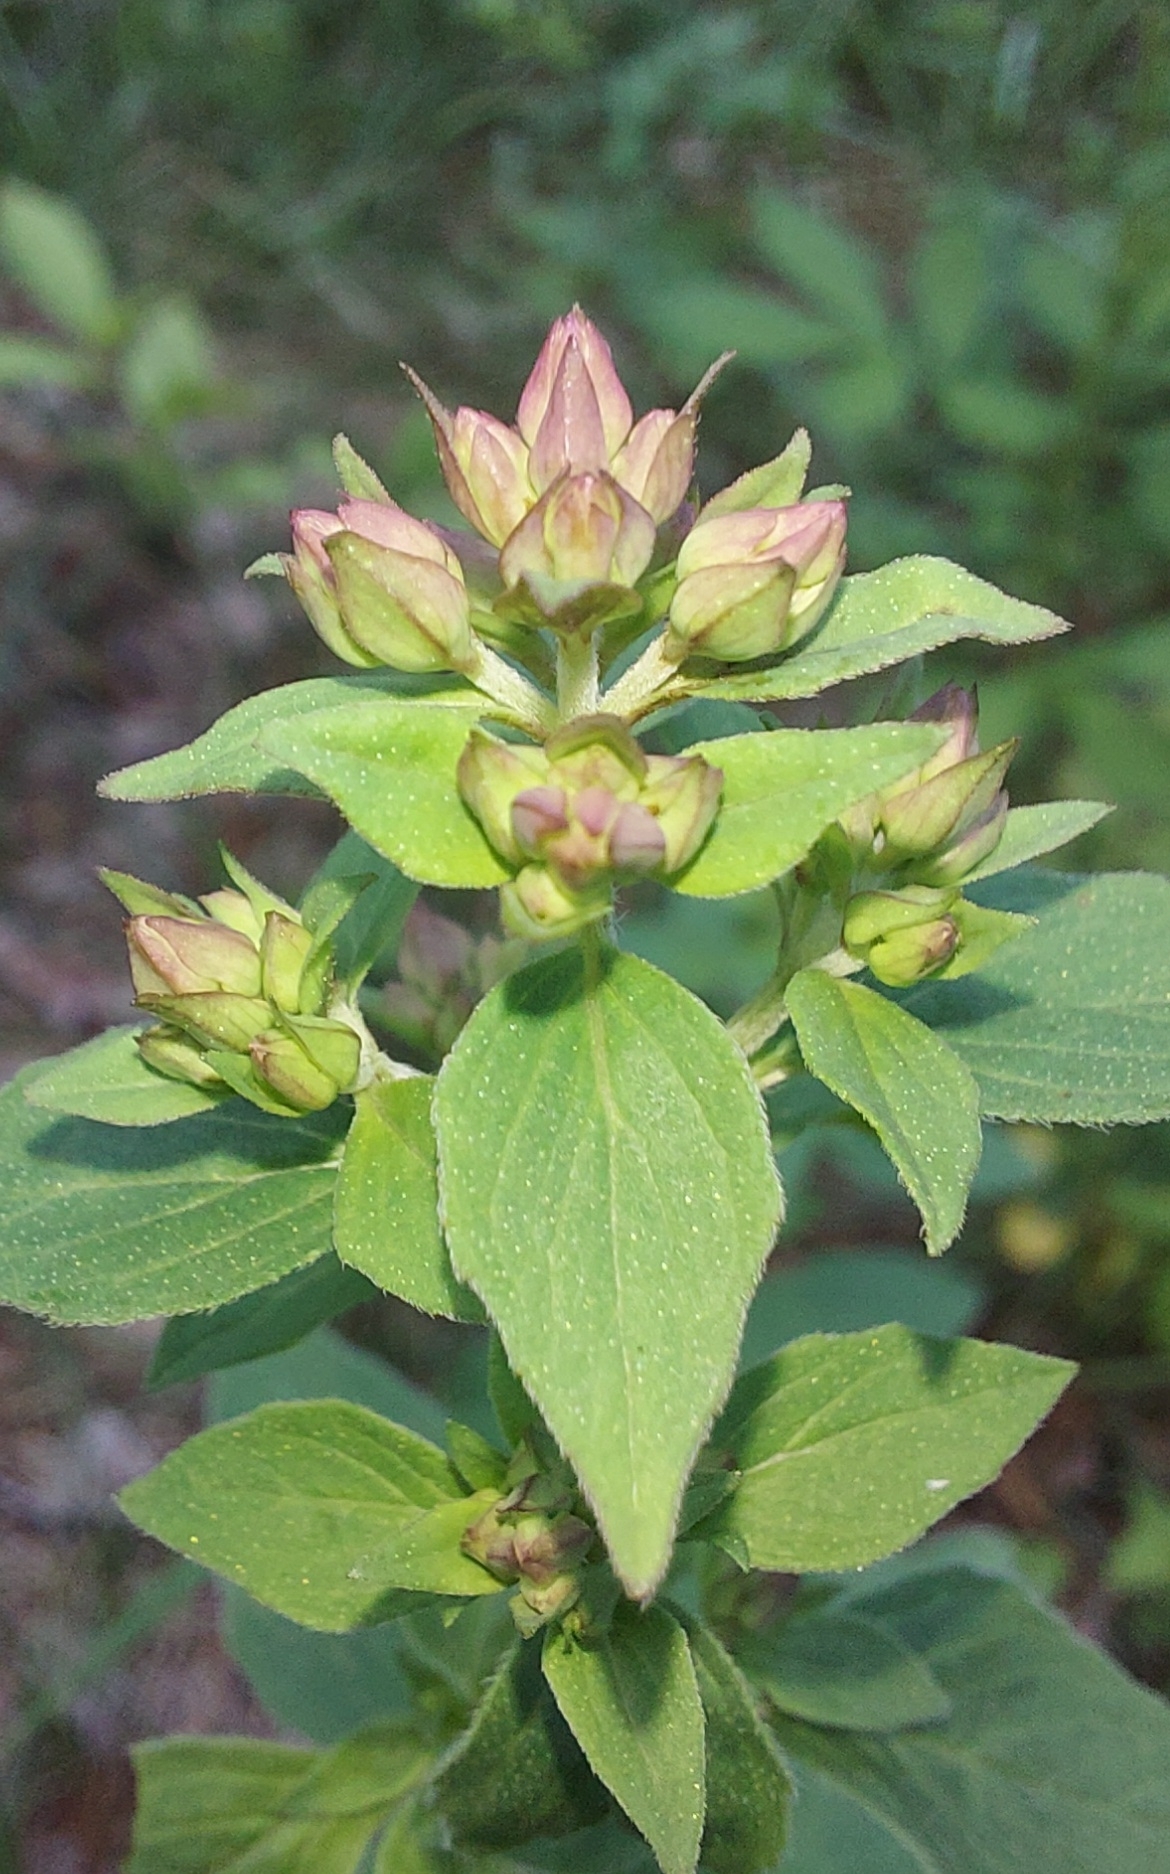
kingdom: Plantae
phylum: Tracheophyta
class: Magnoliopsida
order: Lamiales
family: Lamiaceae
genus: Origanum
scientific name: Origanum vulgare
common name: Wild marjoram
